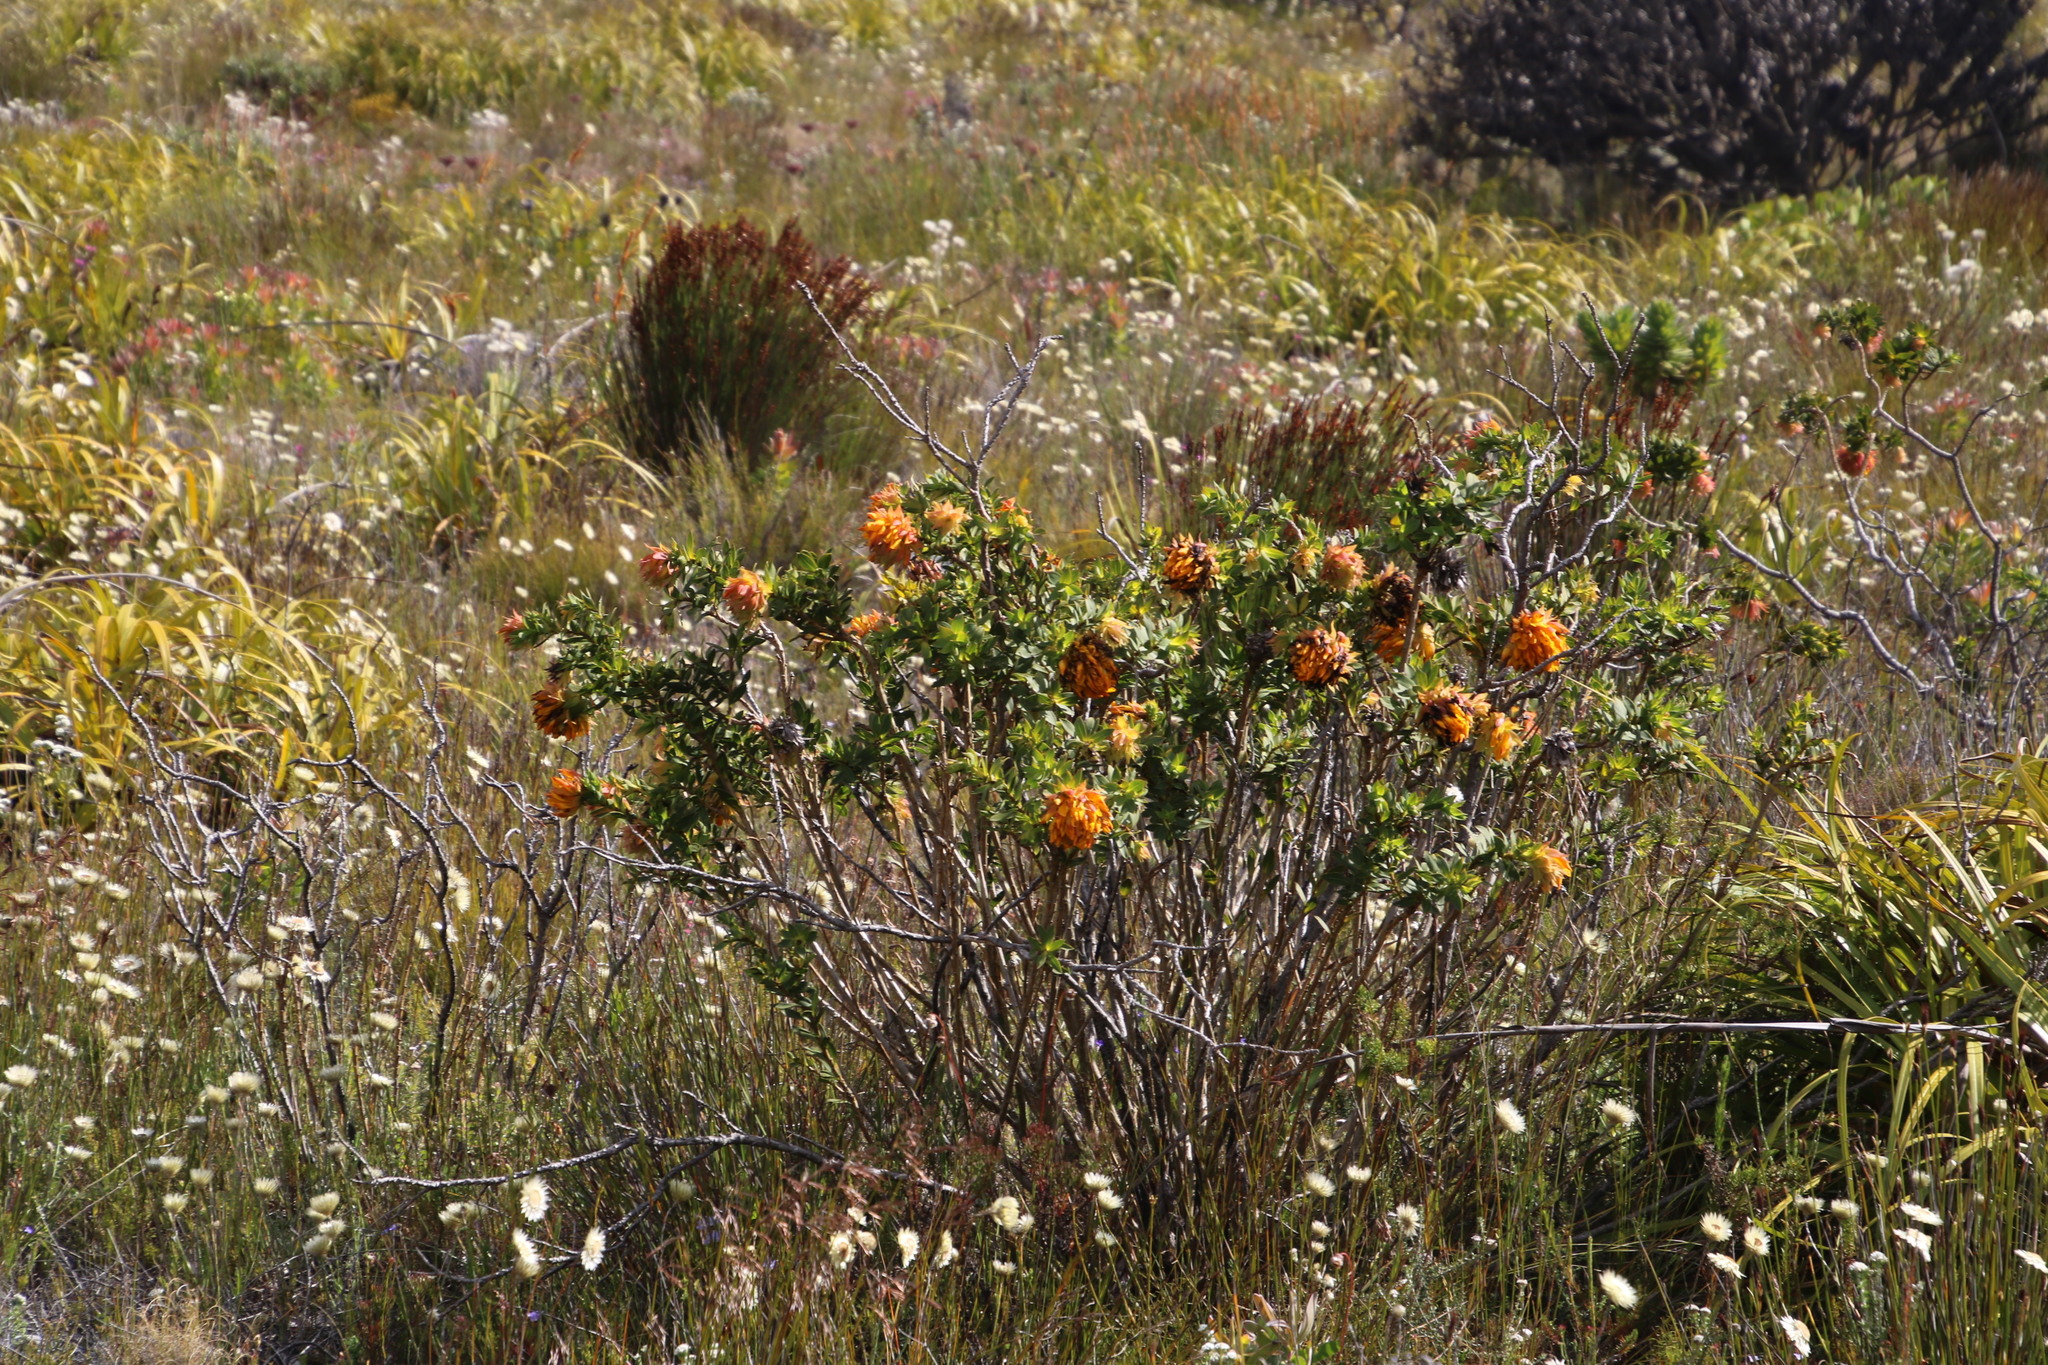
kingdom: Plantae
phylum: Tracheophyta
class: Magnoliopsida
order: Fabales
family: Fabaceae
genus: Liparia
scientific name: Liparia splendens
